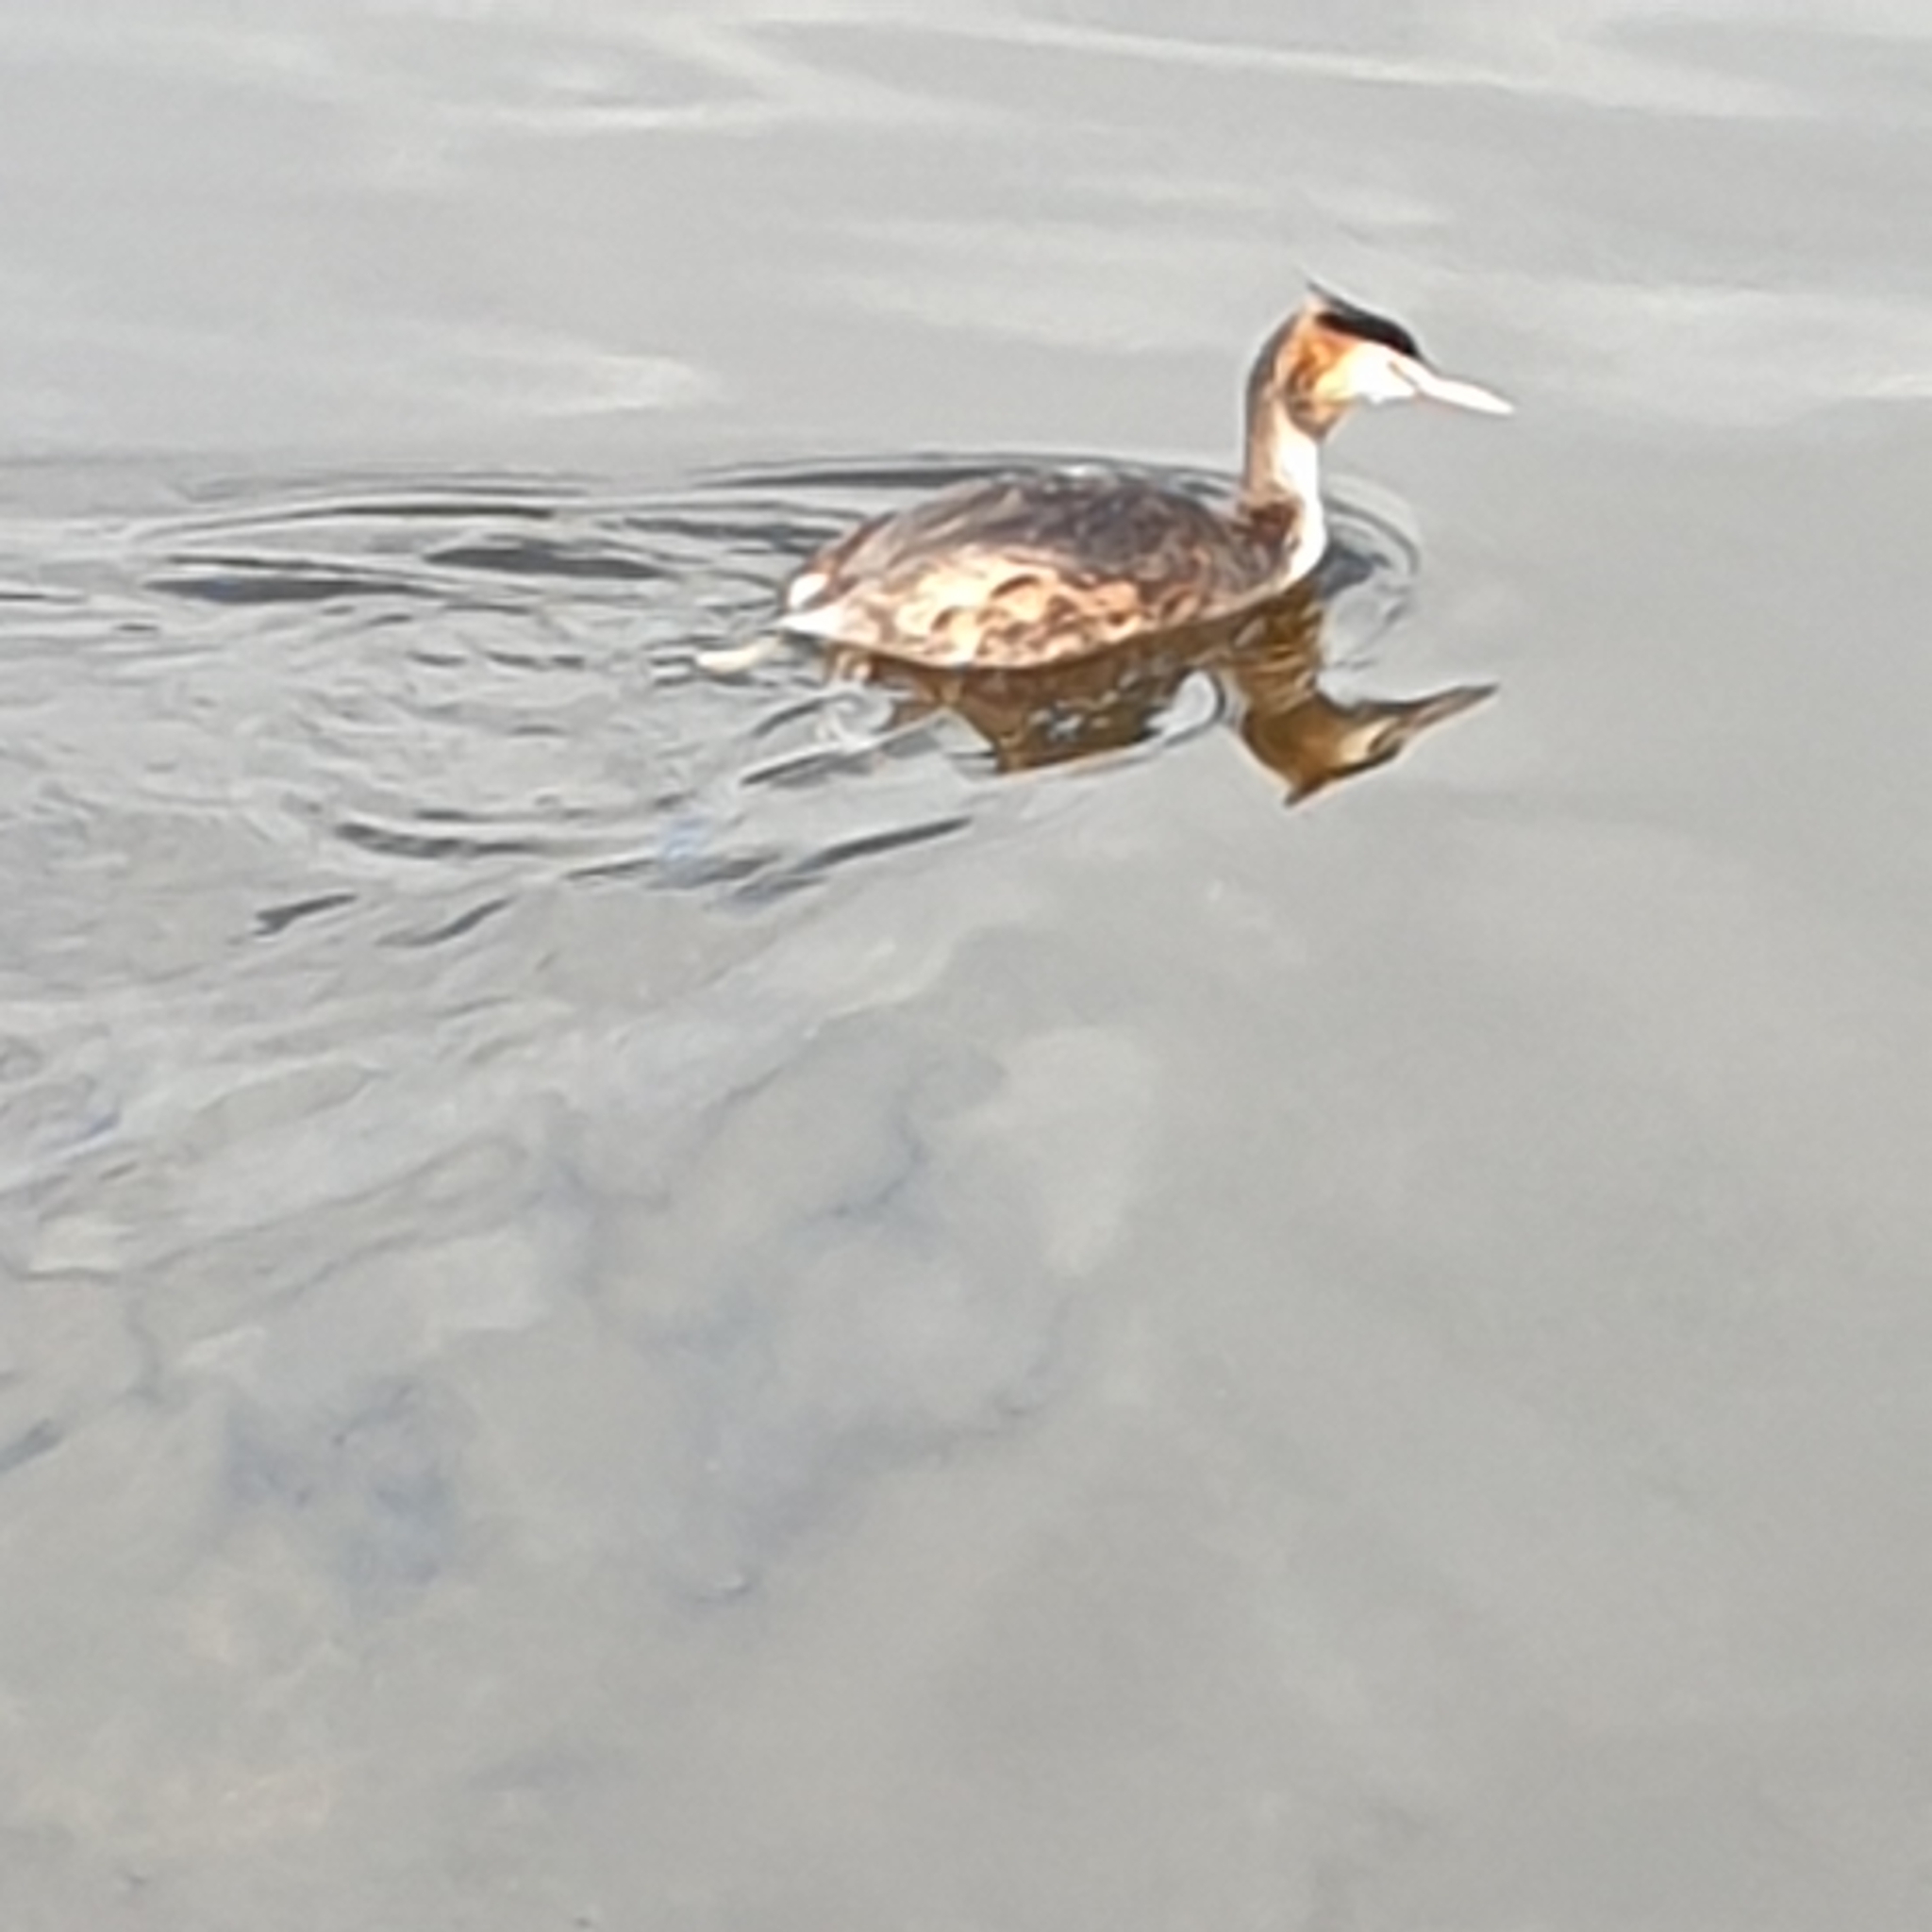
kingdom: Animalia
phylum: Chordata
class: Aves
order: Podicipediformes
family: Podicipedidae
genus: Podiceps
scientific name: Podiceps cristatus
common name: Great crested grebe
